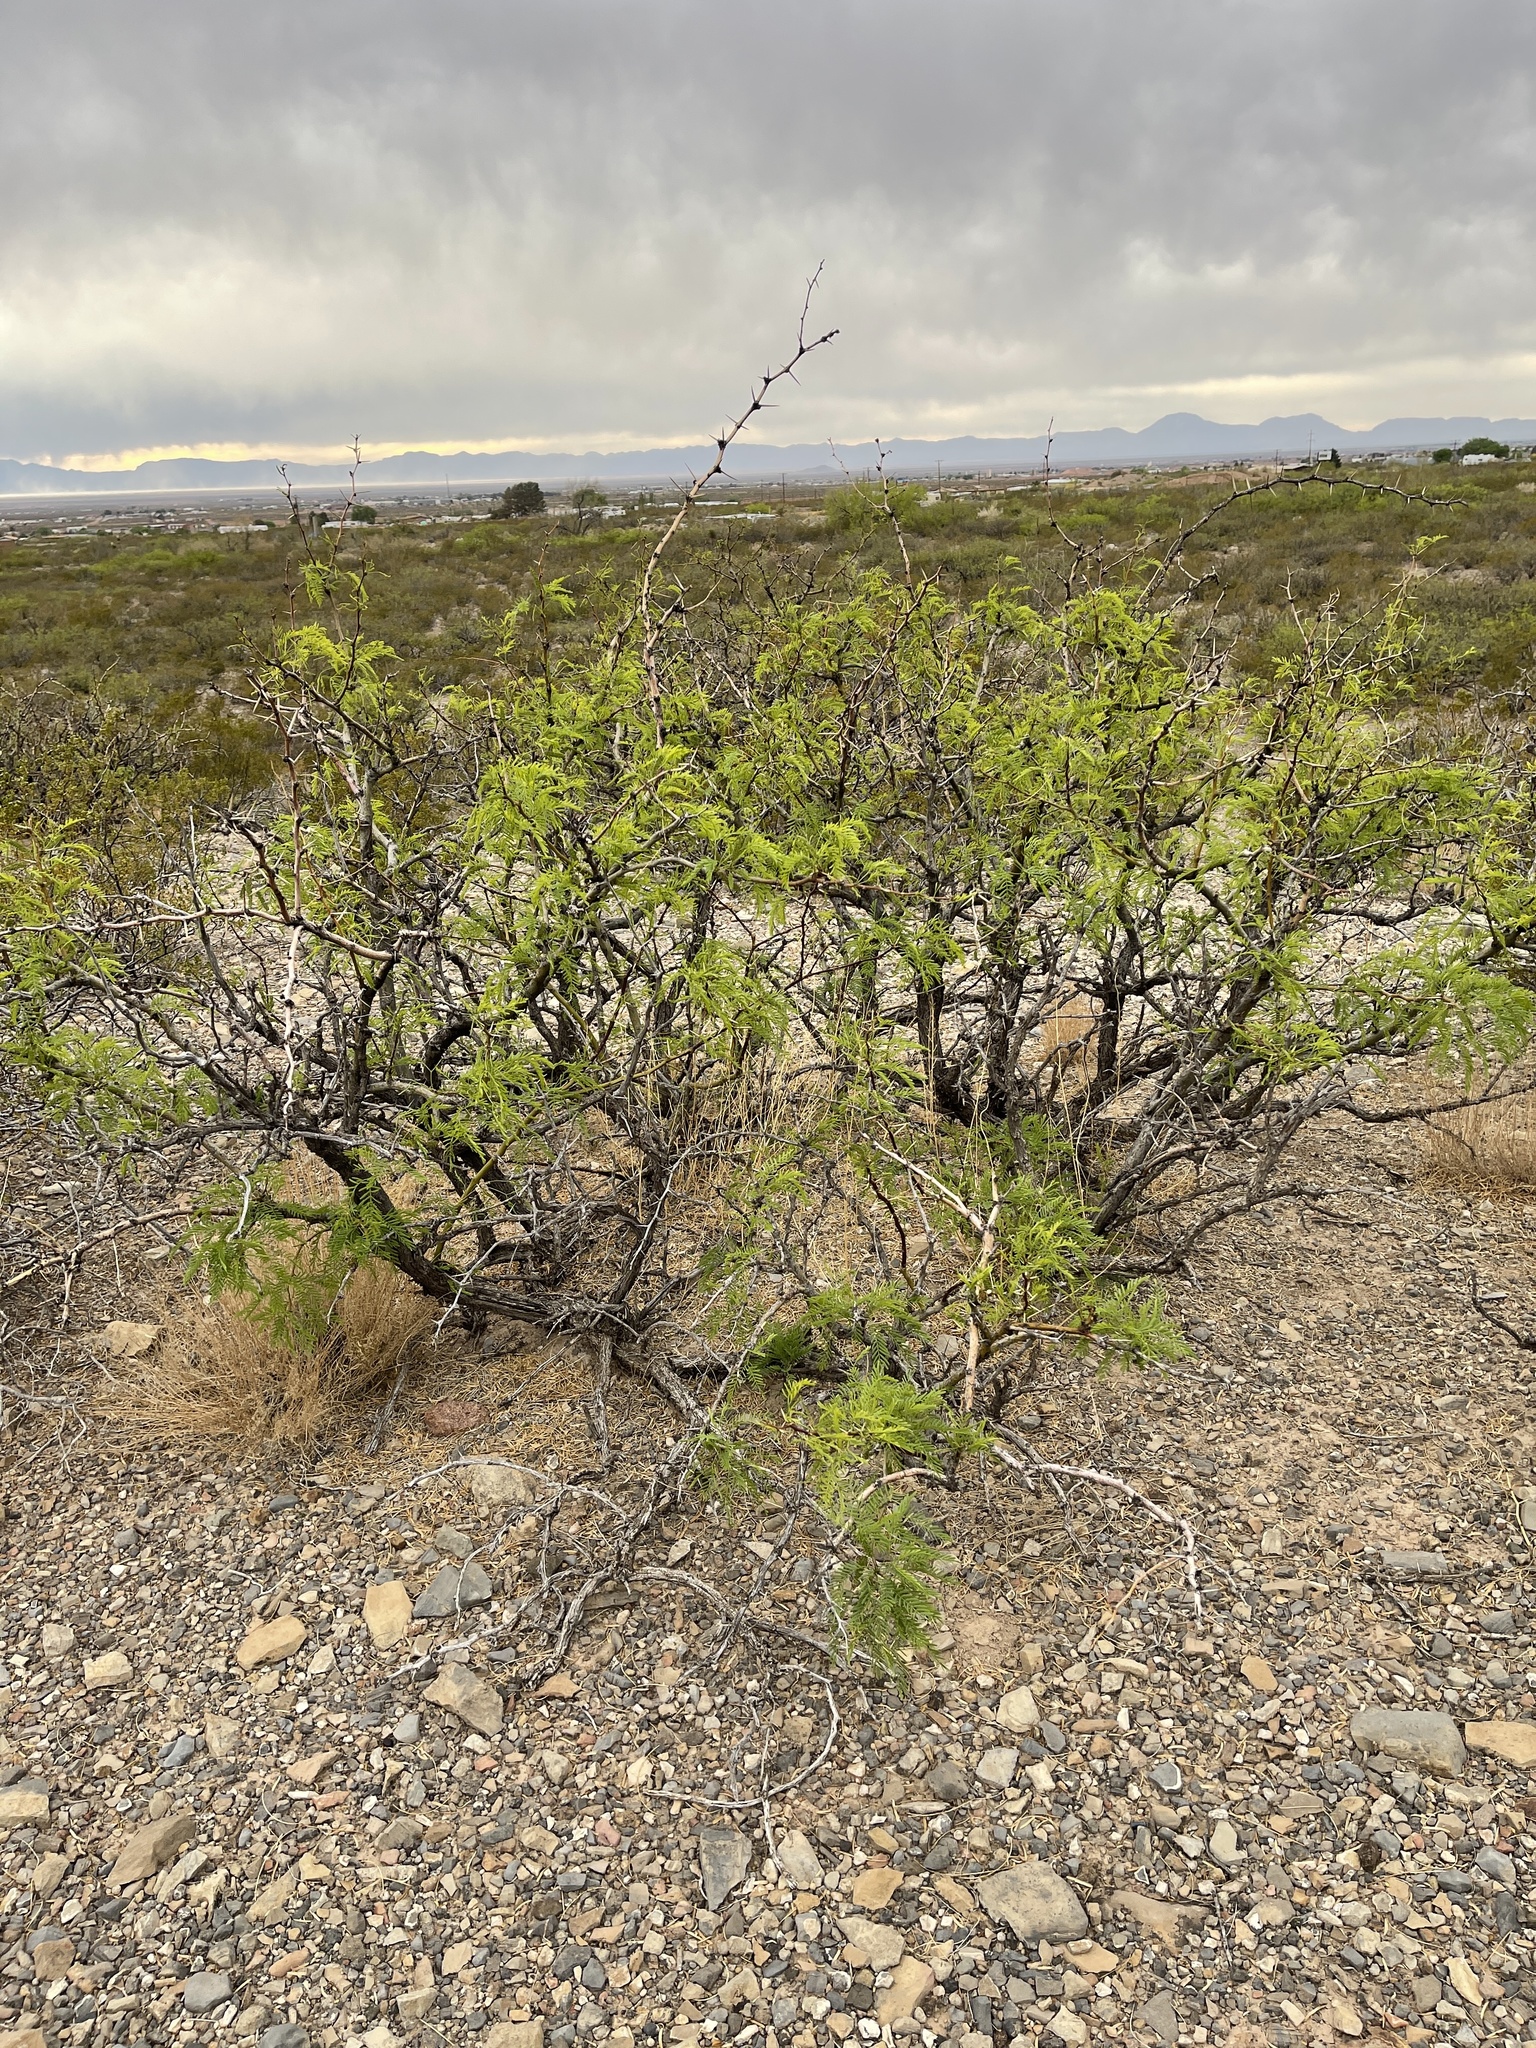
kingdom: Plantae
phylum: Tracheophyta
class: Magnoliopsida
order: Fabales
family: Fabaceae
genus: Prosopis
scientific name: Prosopis glandulosa
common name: Honey mesquite
